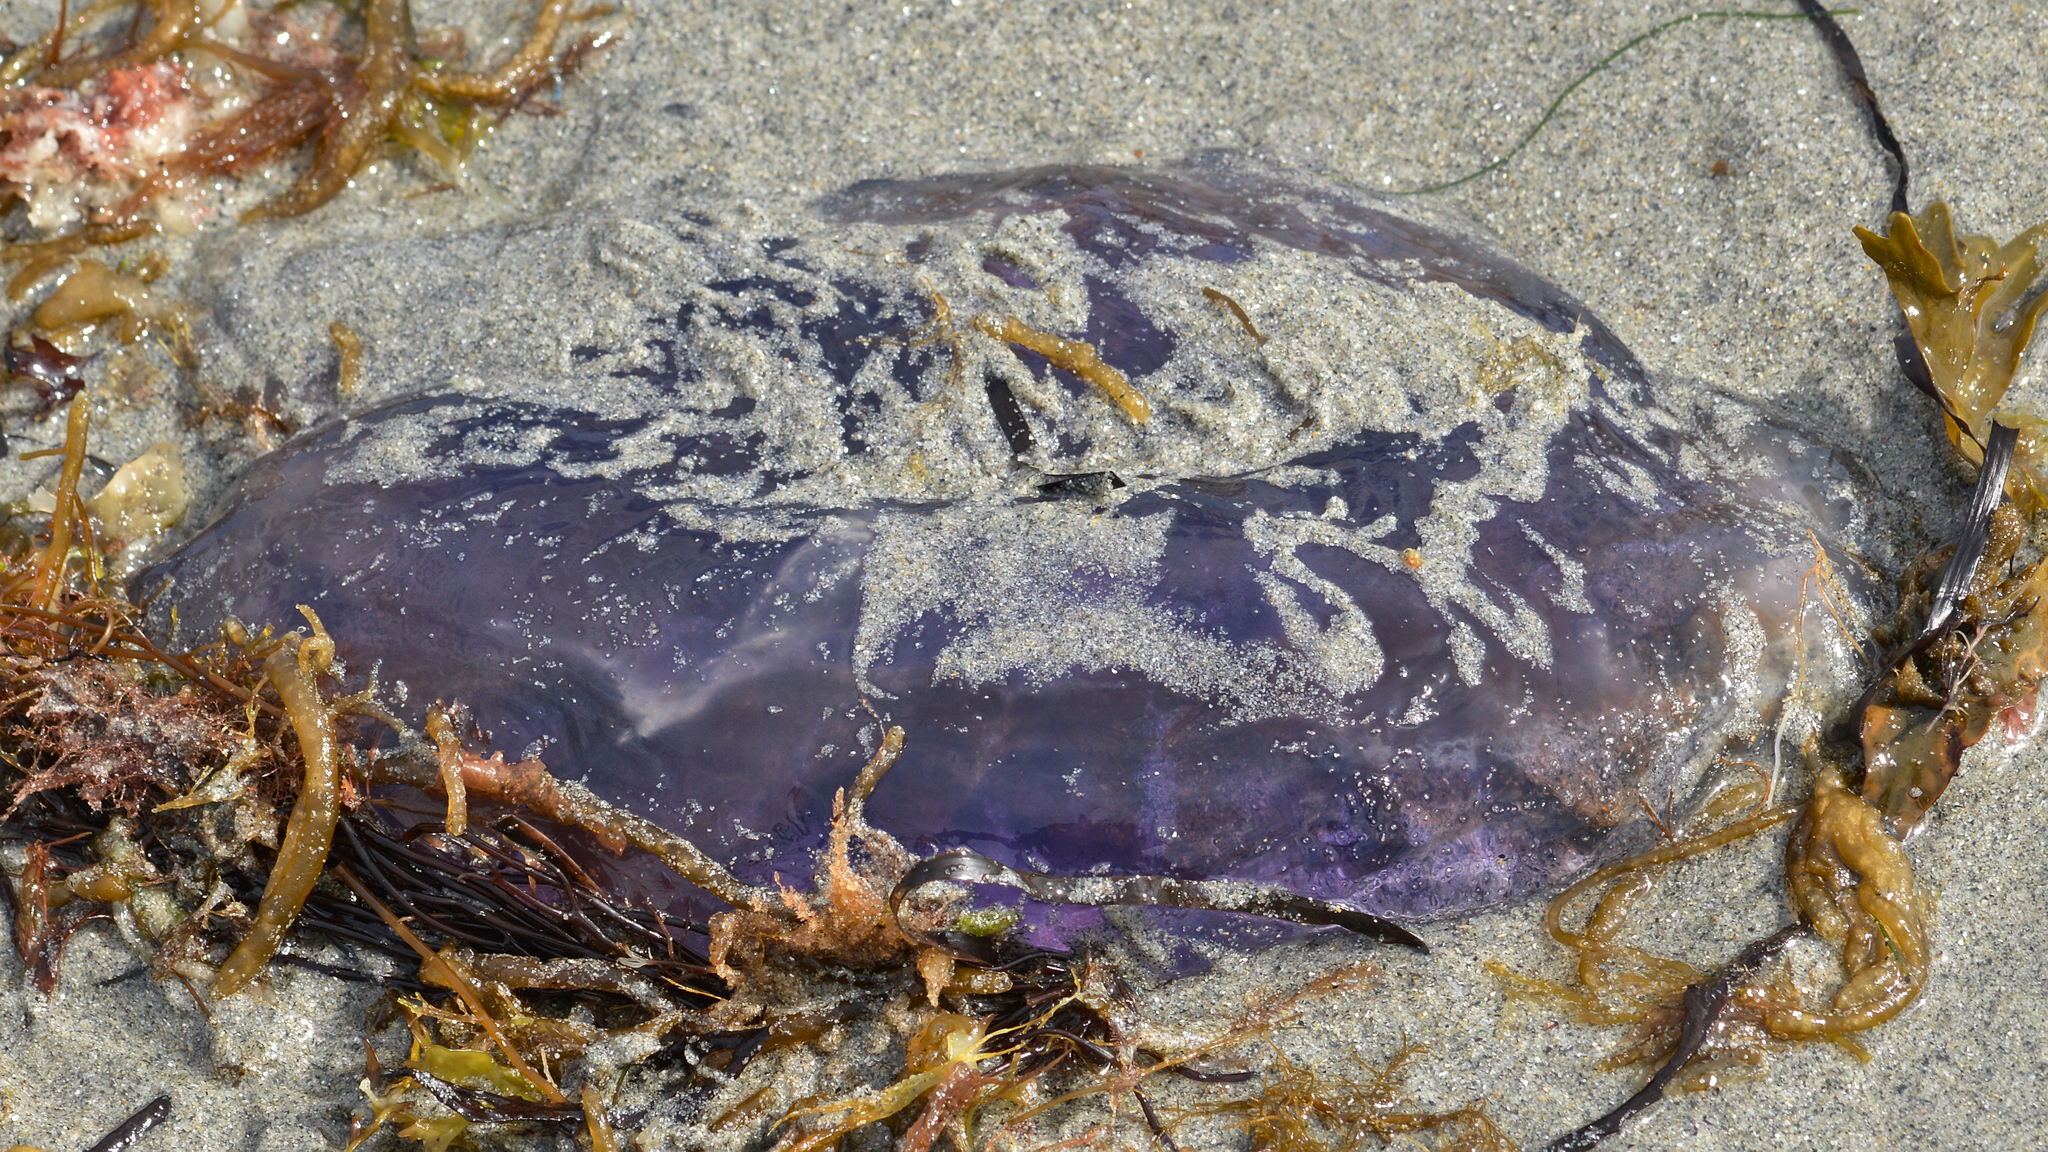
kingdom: Animalia
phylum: Cnidaria
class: Scyphozoa
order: Semaeostomeae
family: Cyaneidae
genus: Cyanea
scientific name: Cyanea
